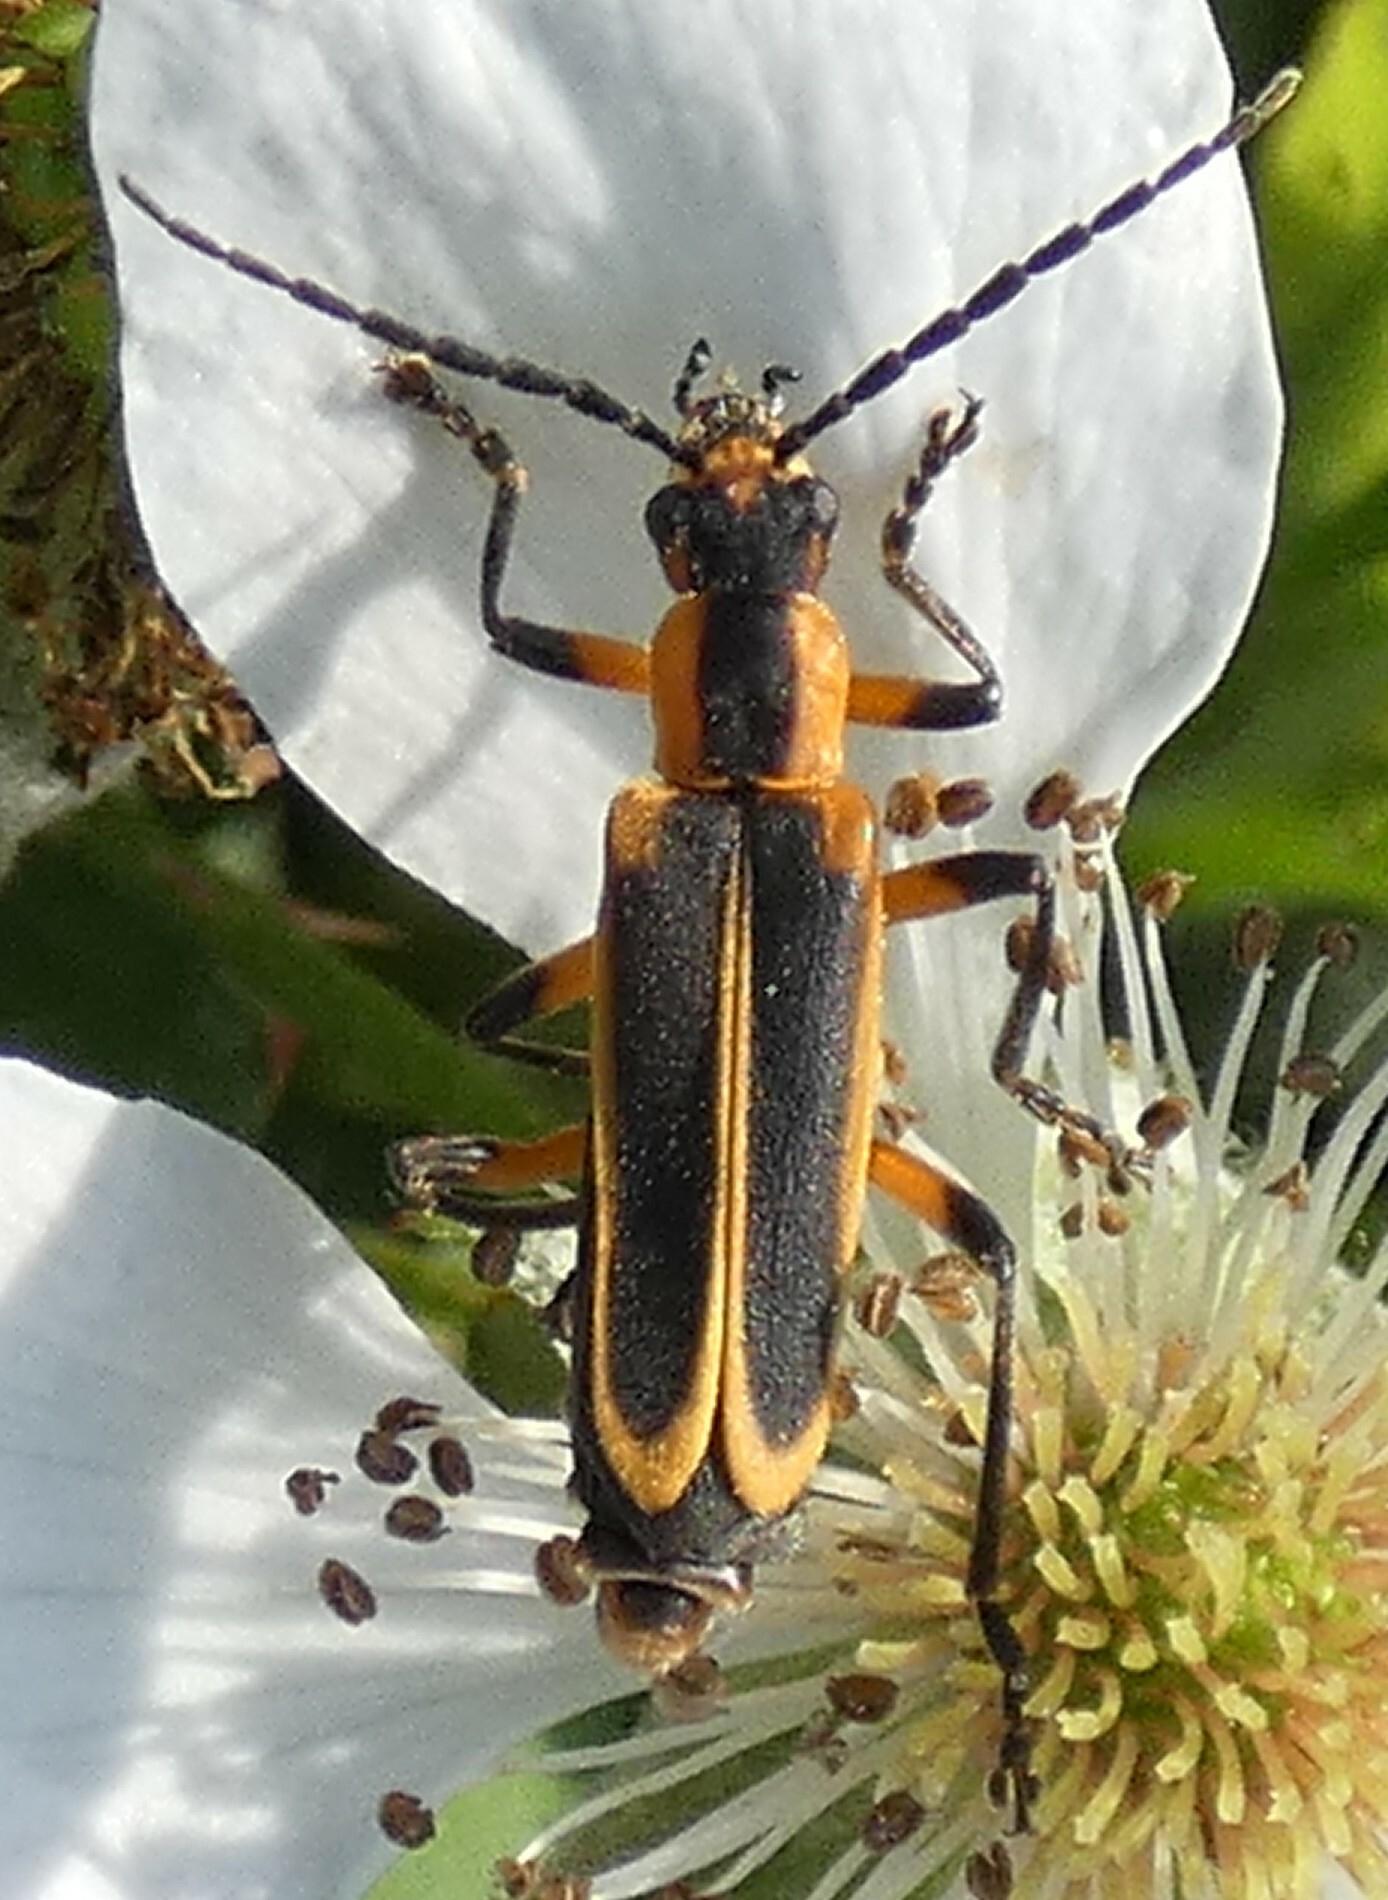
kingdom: Animalia
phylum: Arthropoda
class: Insecta
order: Coleoptera
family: Cantharidae
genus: Chauliognathus
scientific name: Chauliognathus marginatus
